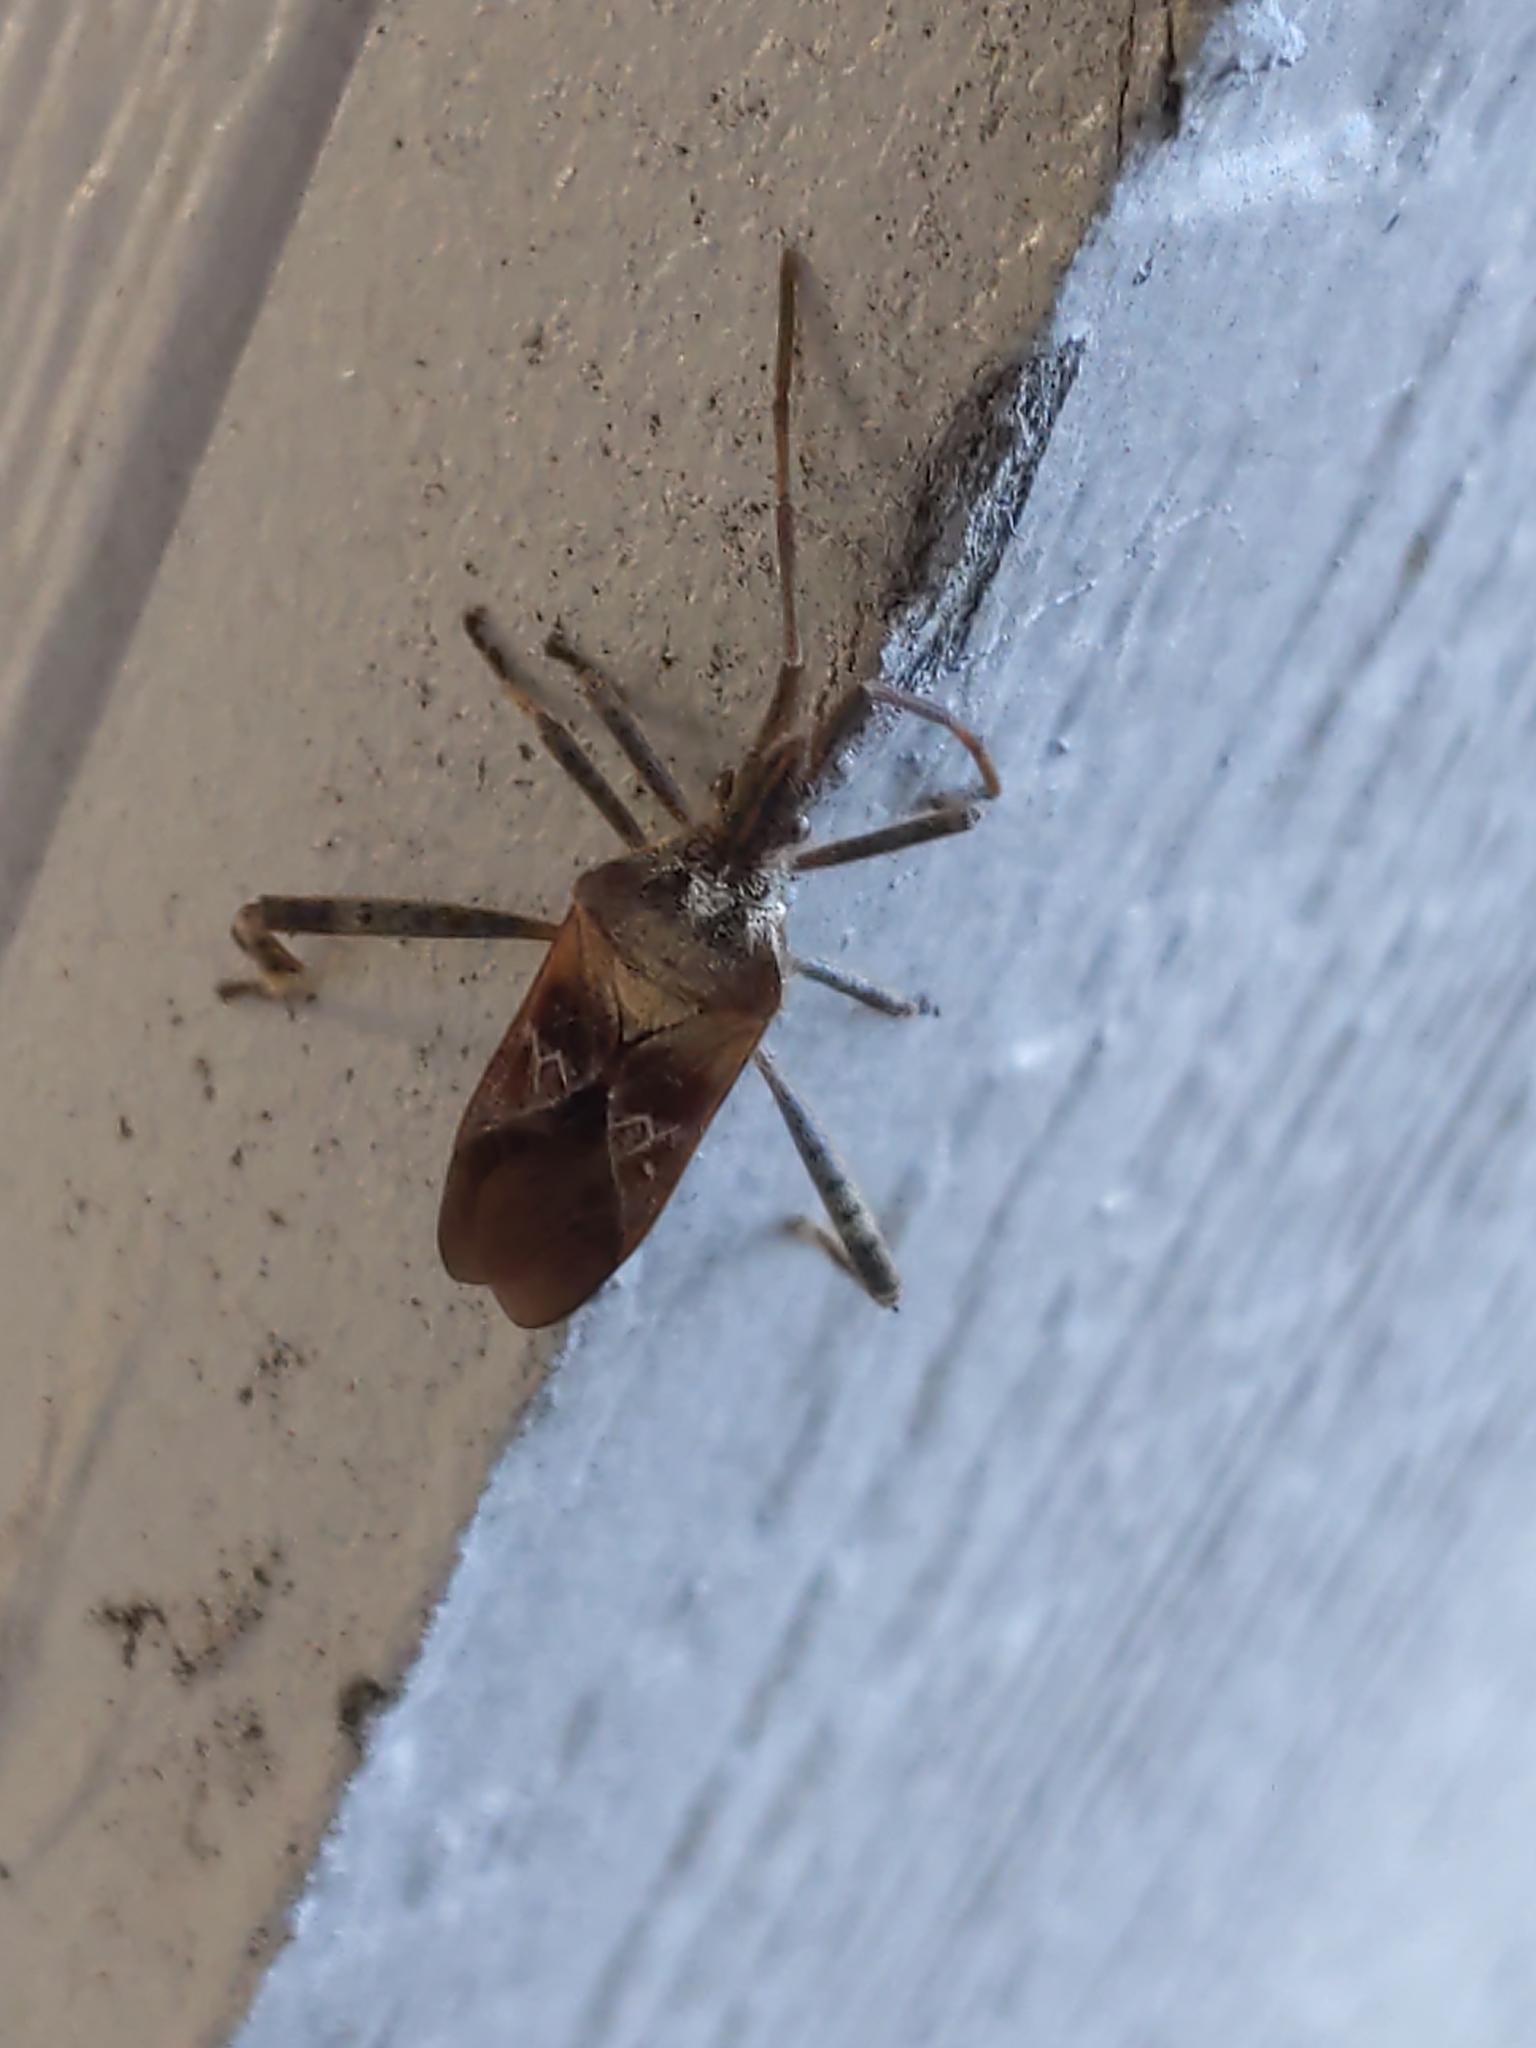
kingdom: Animalia
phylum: Arthropoda
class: Insecta
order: Hemiptera
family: Coreidae
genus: Leptoglossus
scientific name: Leptoglossus occidentalis
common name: Western conifer-seed bug
